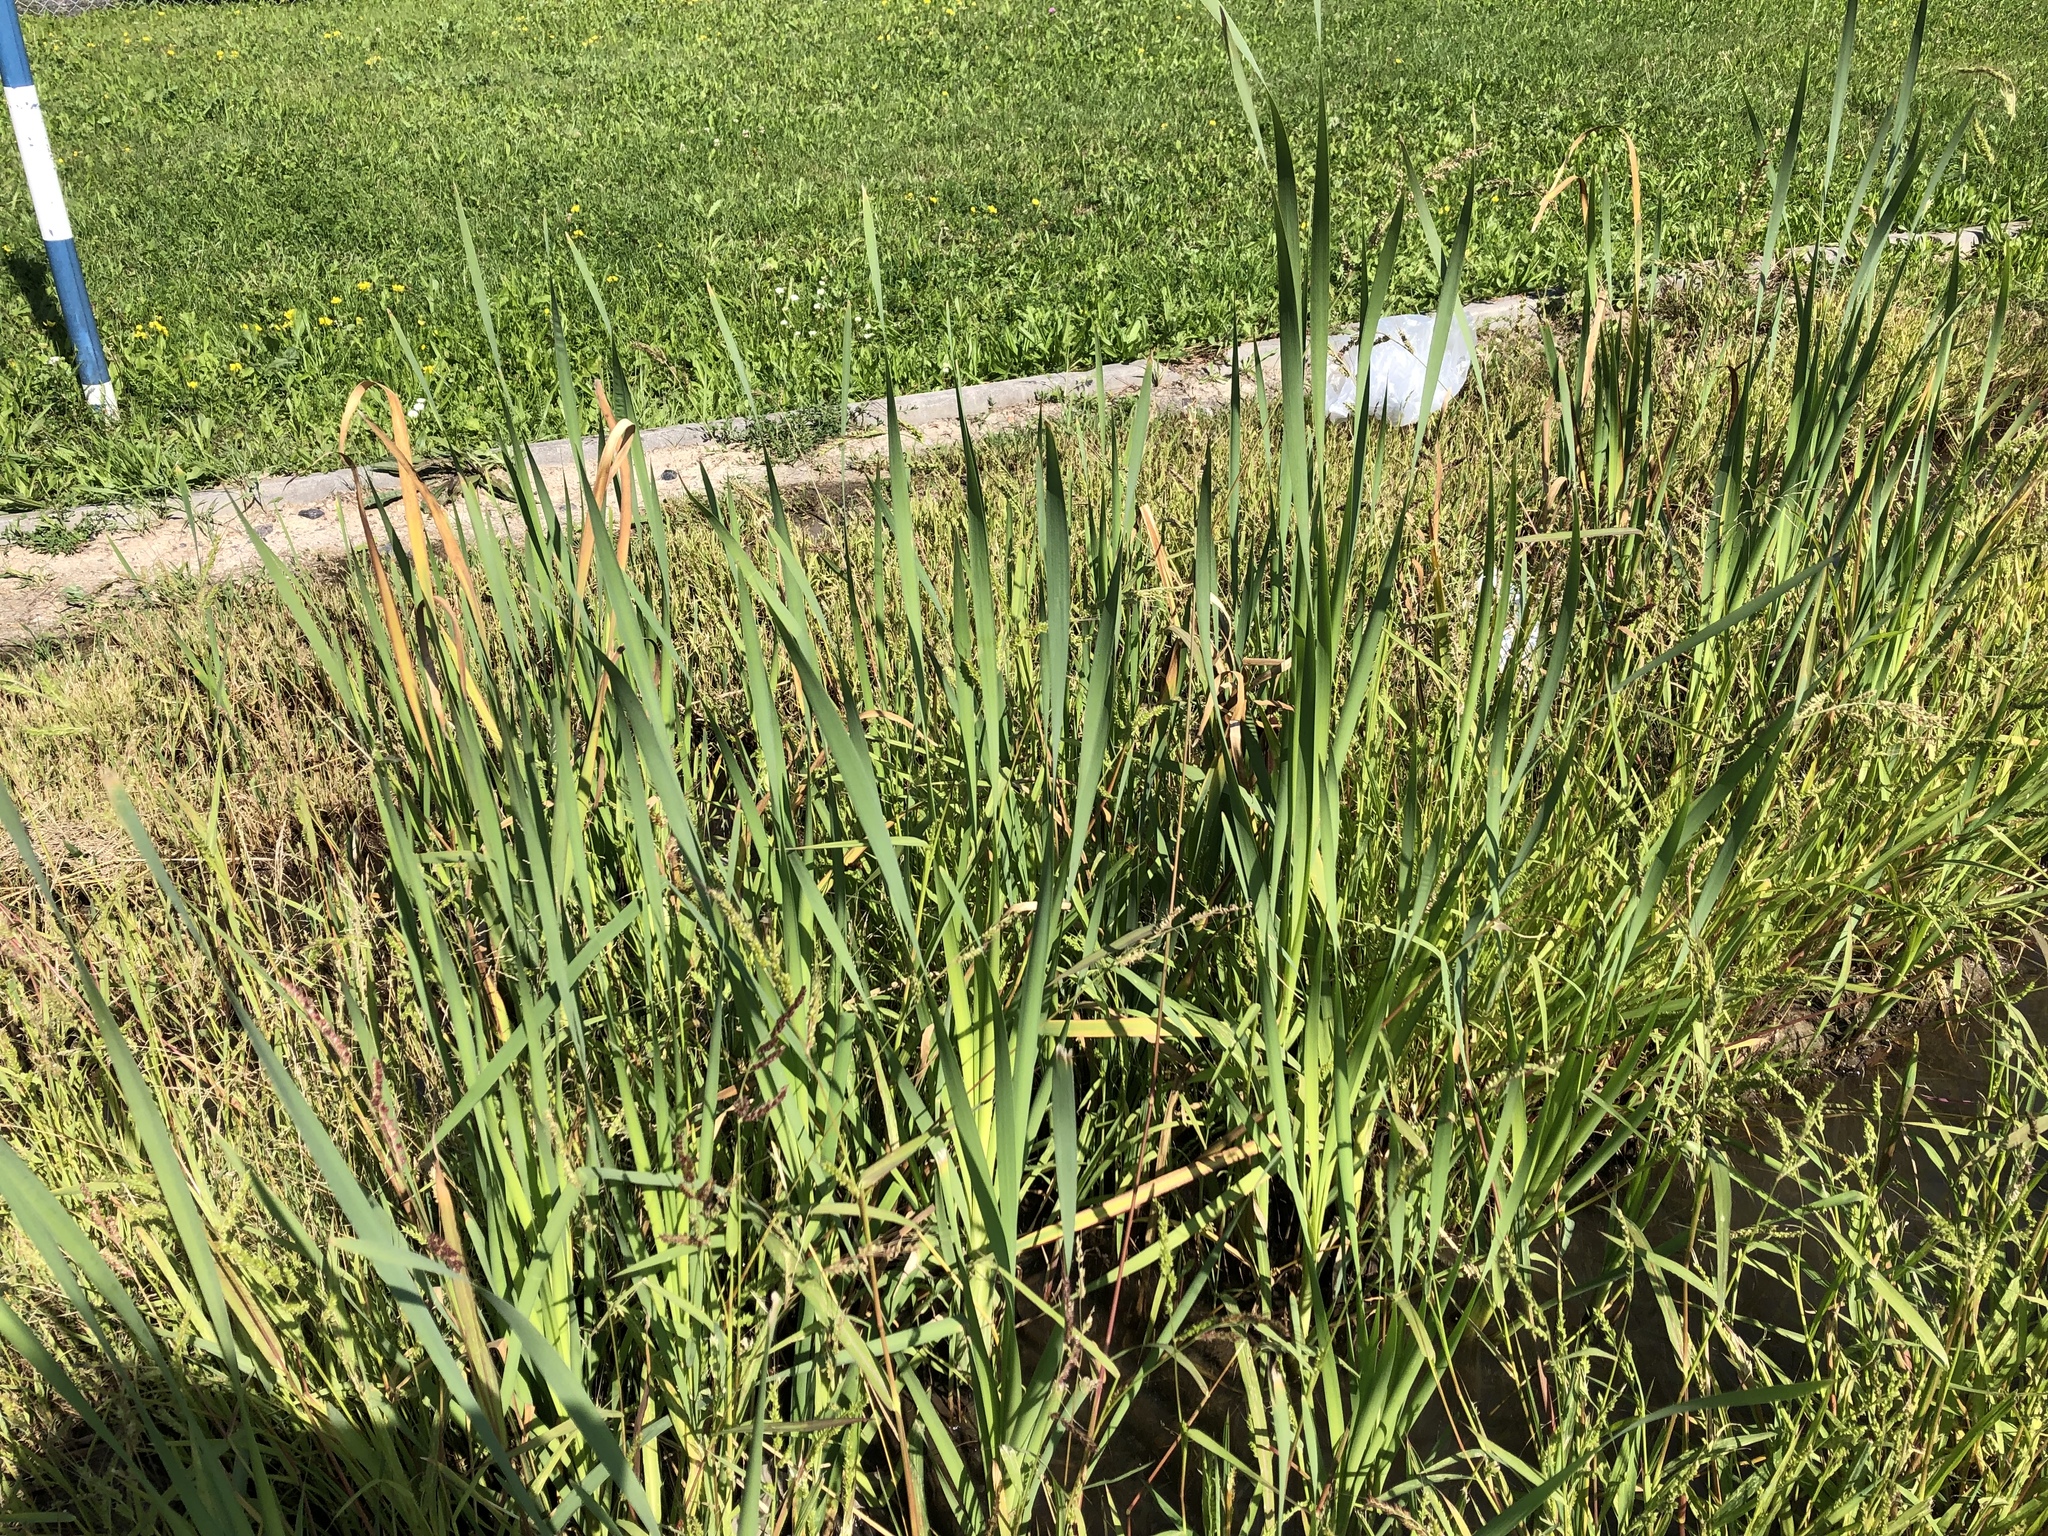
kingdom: Plantae
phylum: Tracheophyta
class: Liliopsida
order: Poales
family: Typhaceae
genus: Typha
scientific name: Typha latifolia
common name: Broadleaf cattail
